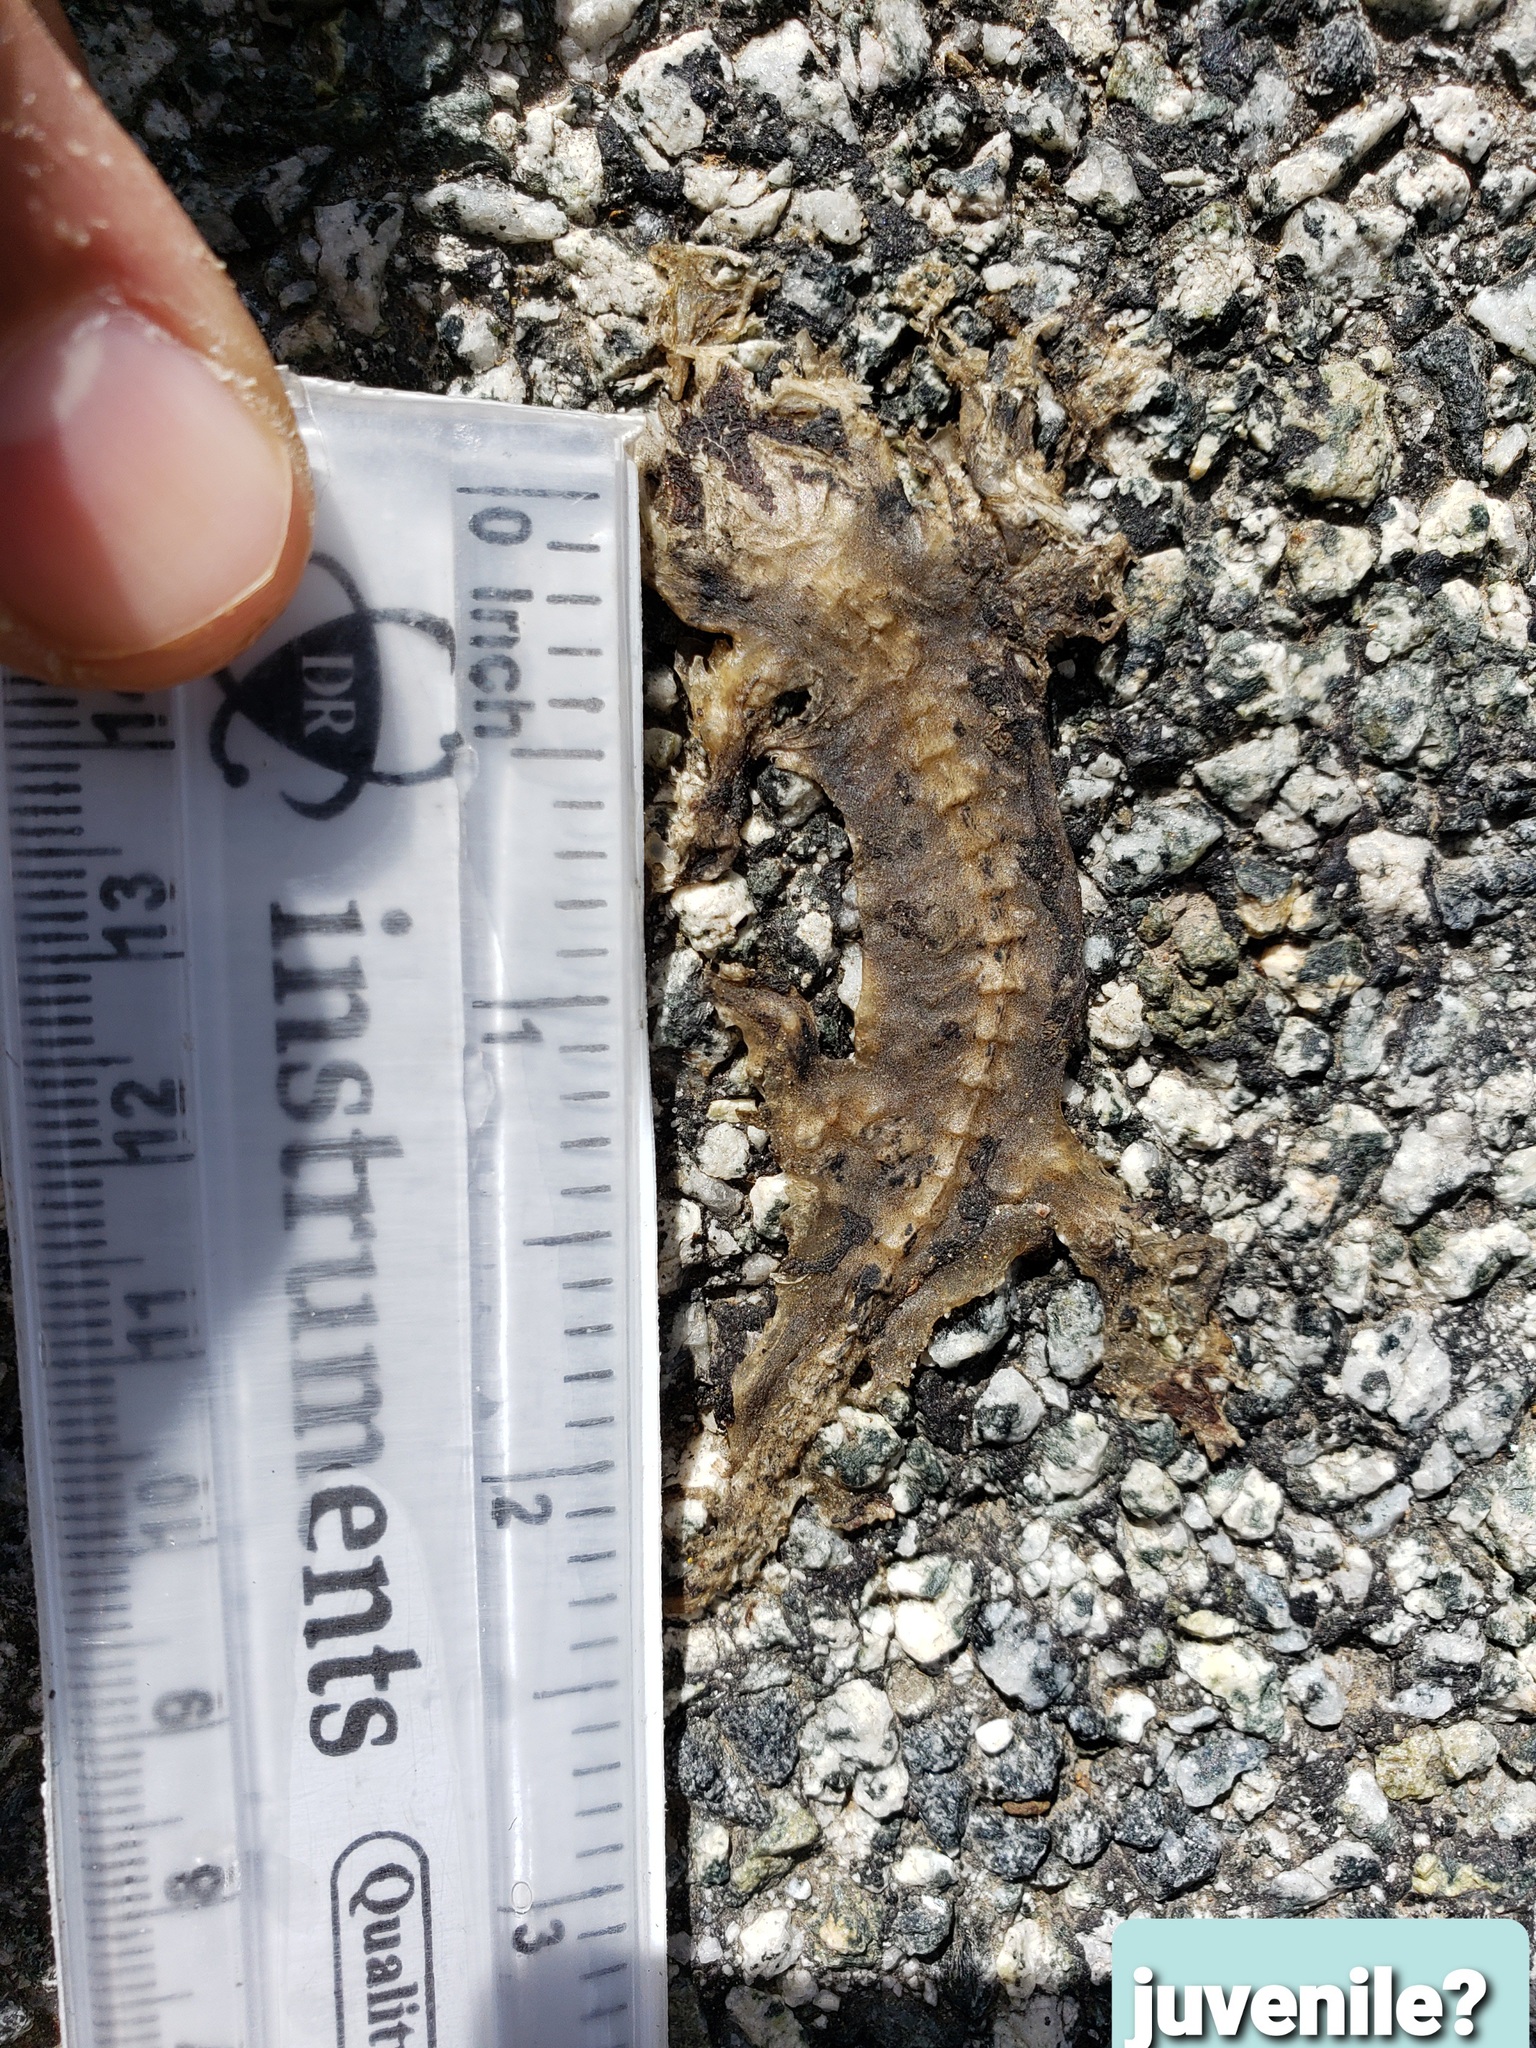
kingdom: Animalia
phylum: Chordata
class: Amphibia
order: Caudata
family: Salamandridae
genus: Taricha
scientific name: Taricha
